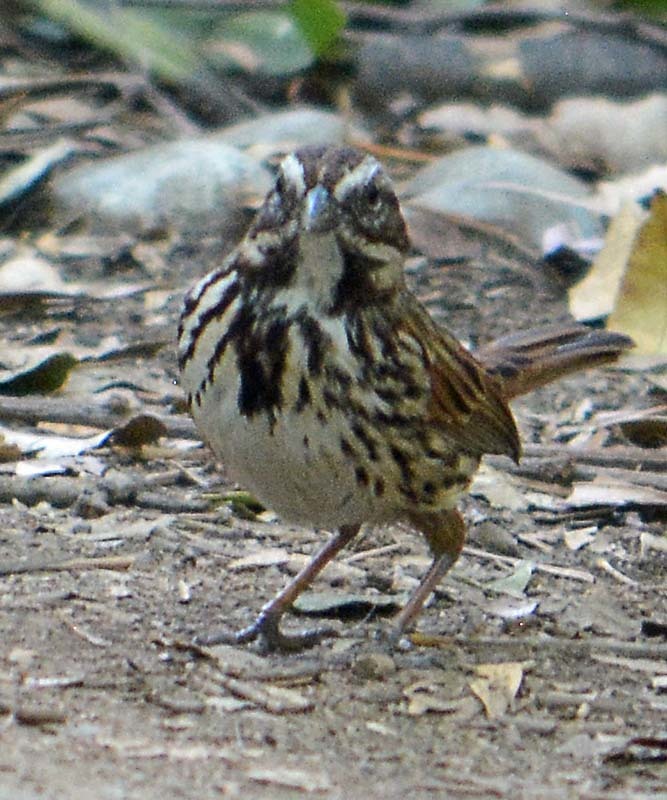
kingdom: Animalia
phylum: Chordata
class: Aves
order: Passeriformes
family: Passerellidae
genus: Melospiza
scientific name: Melospiza melodia
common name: Song sparrow
